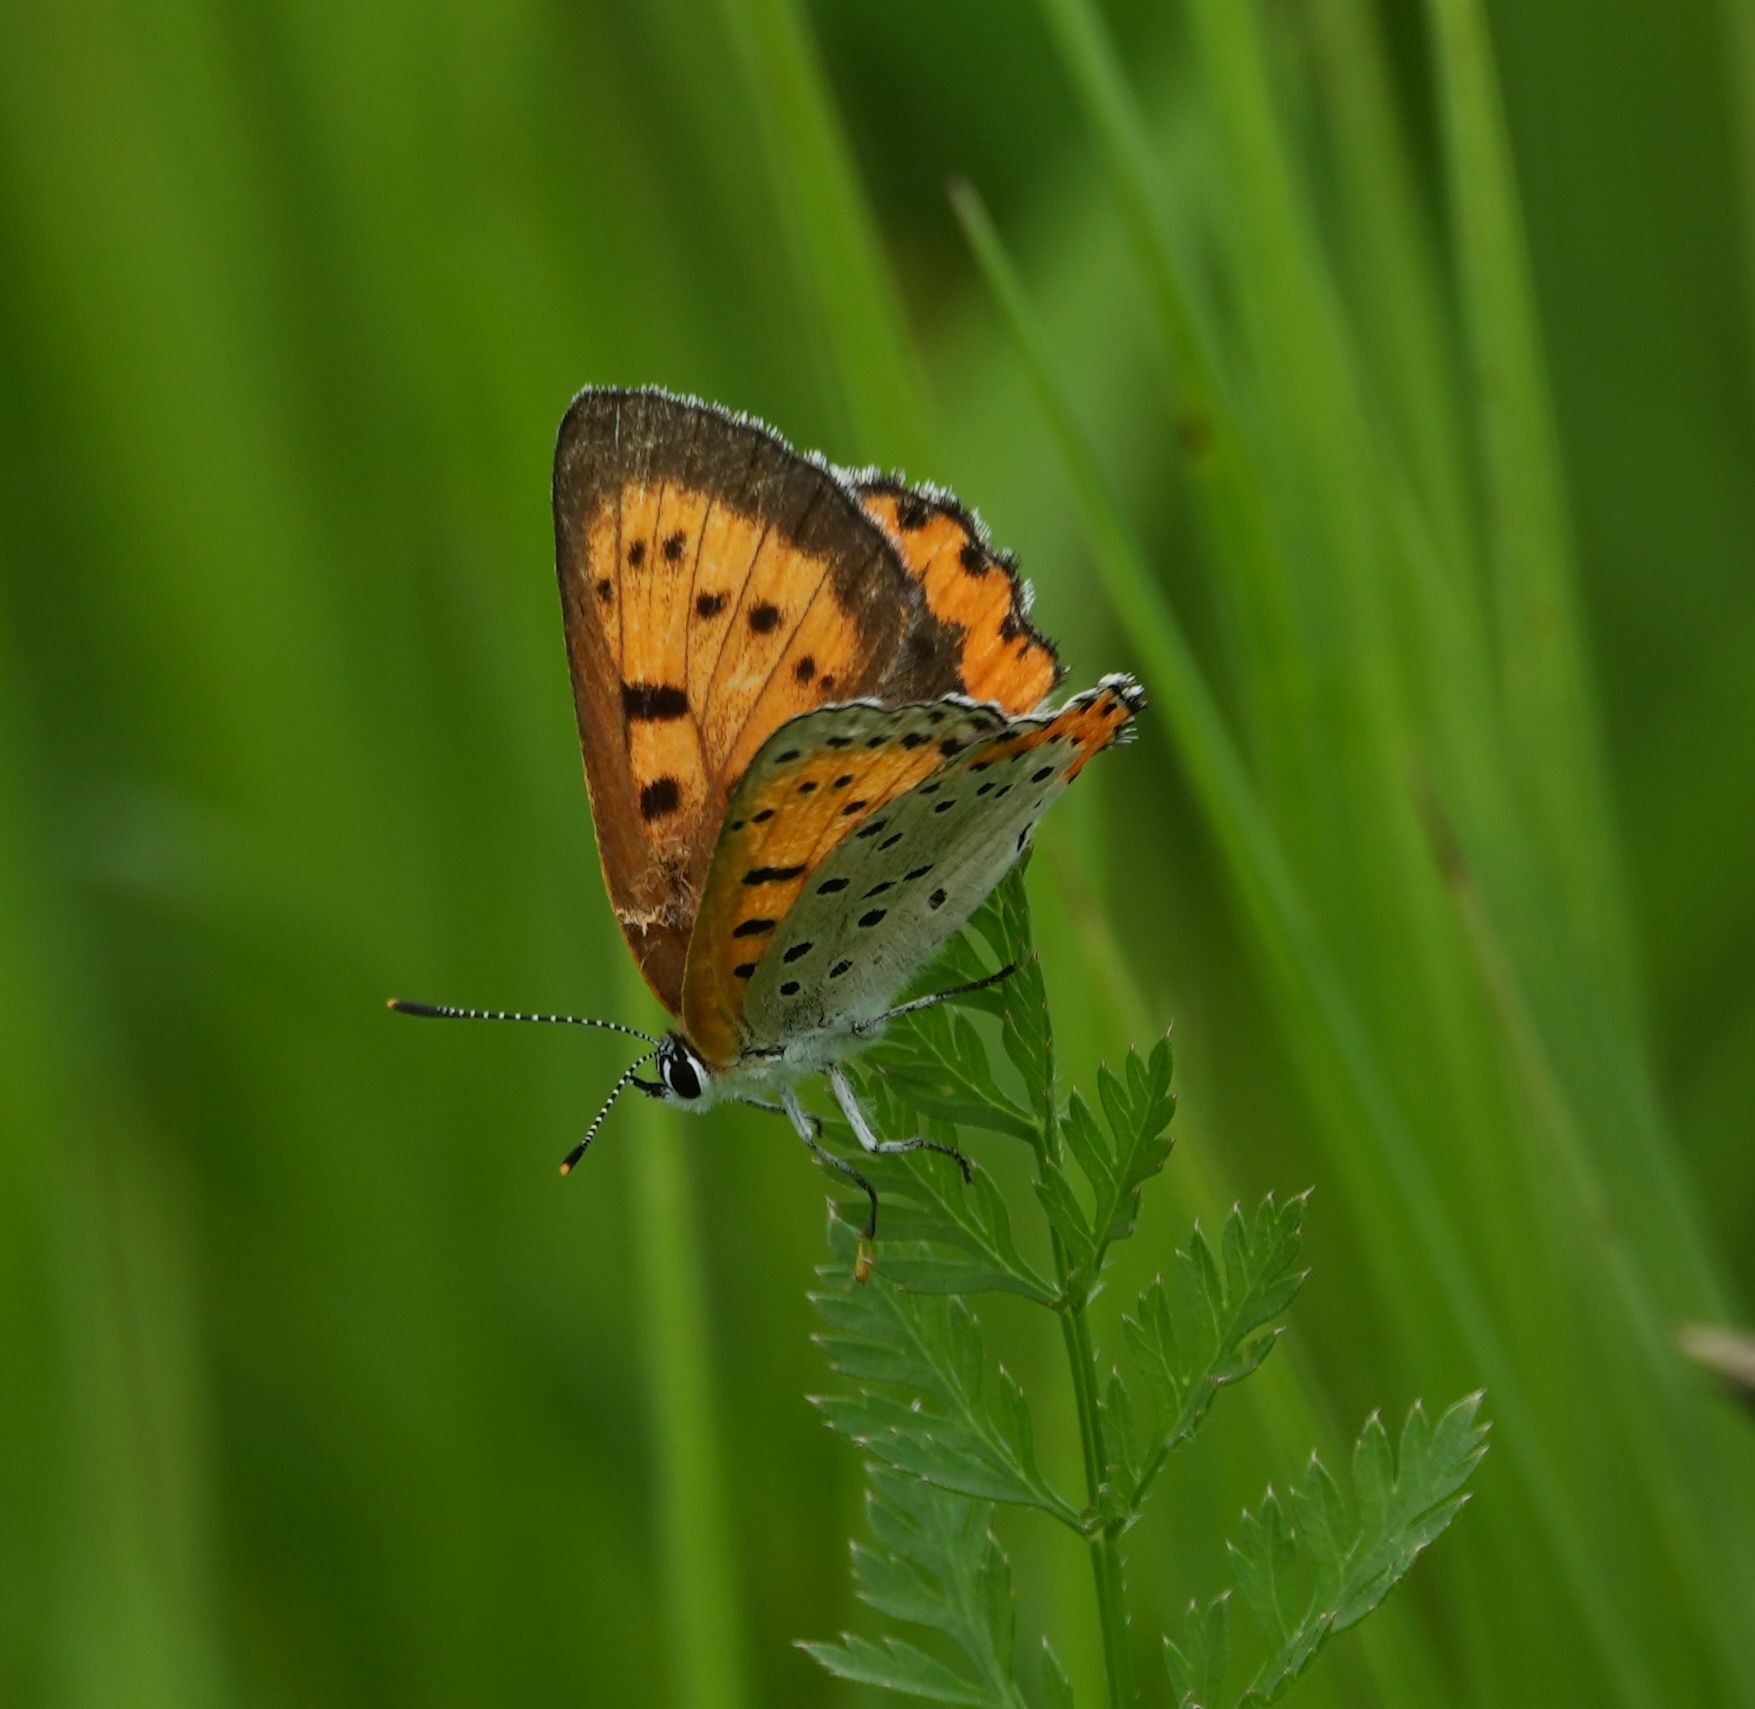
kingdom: Animalia
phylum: Arthropoda
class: Insecta
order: Lepidoptera
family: Lycaenidae
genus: Tharsalea
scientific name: Tharsalea hyllus
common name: Bronze copper
